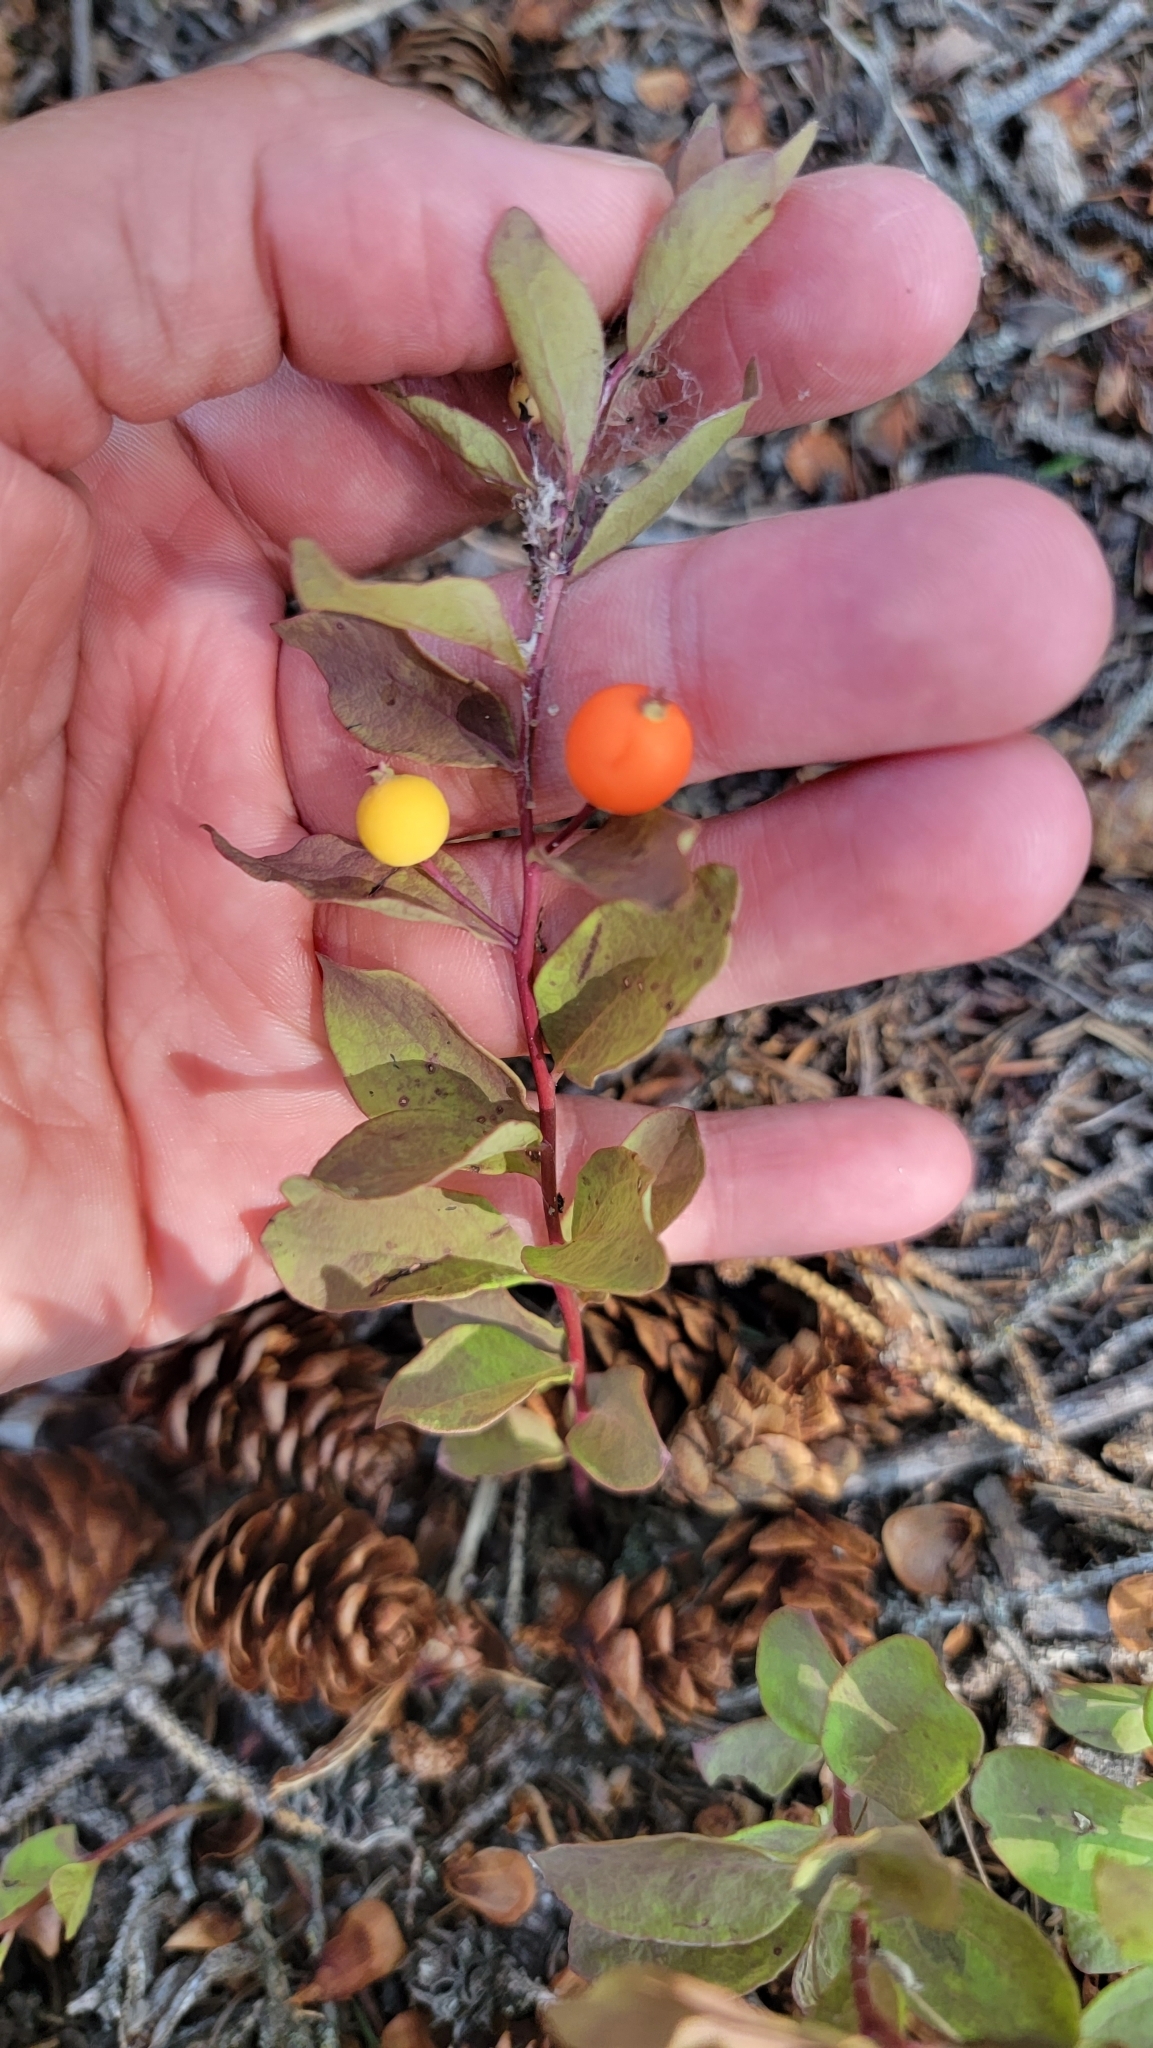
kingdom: Plantae
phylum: Tracheophyta
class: Magnoliopsida
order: Santalales
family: Comandraceae
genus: Geocaulon
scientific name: Geocaulon lividum
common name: Earthberry
